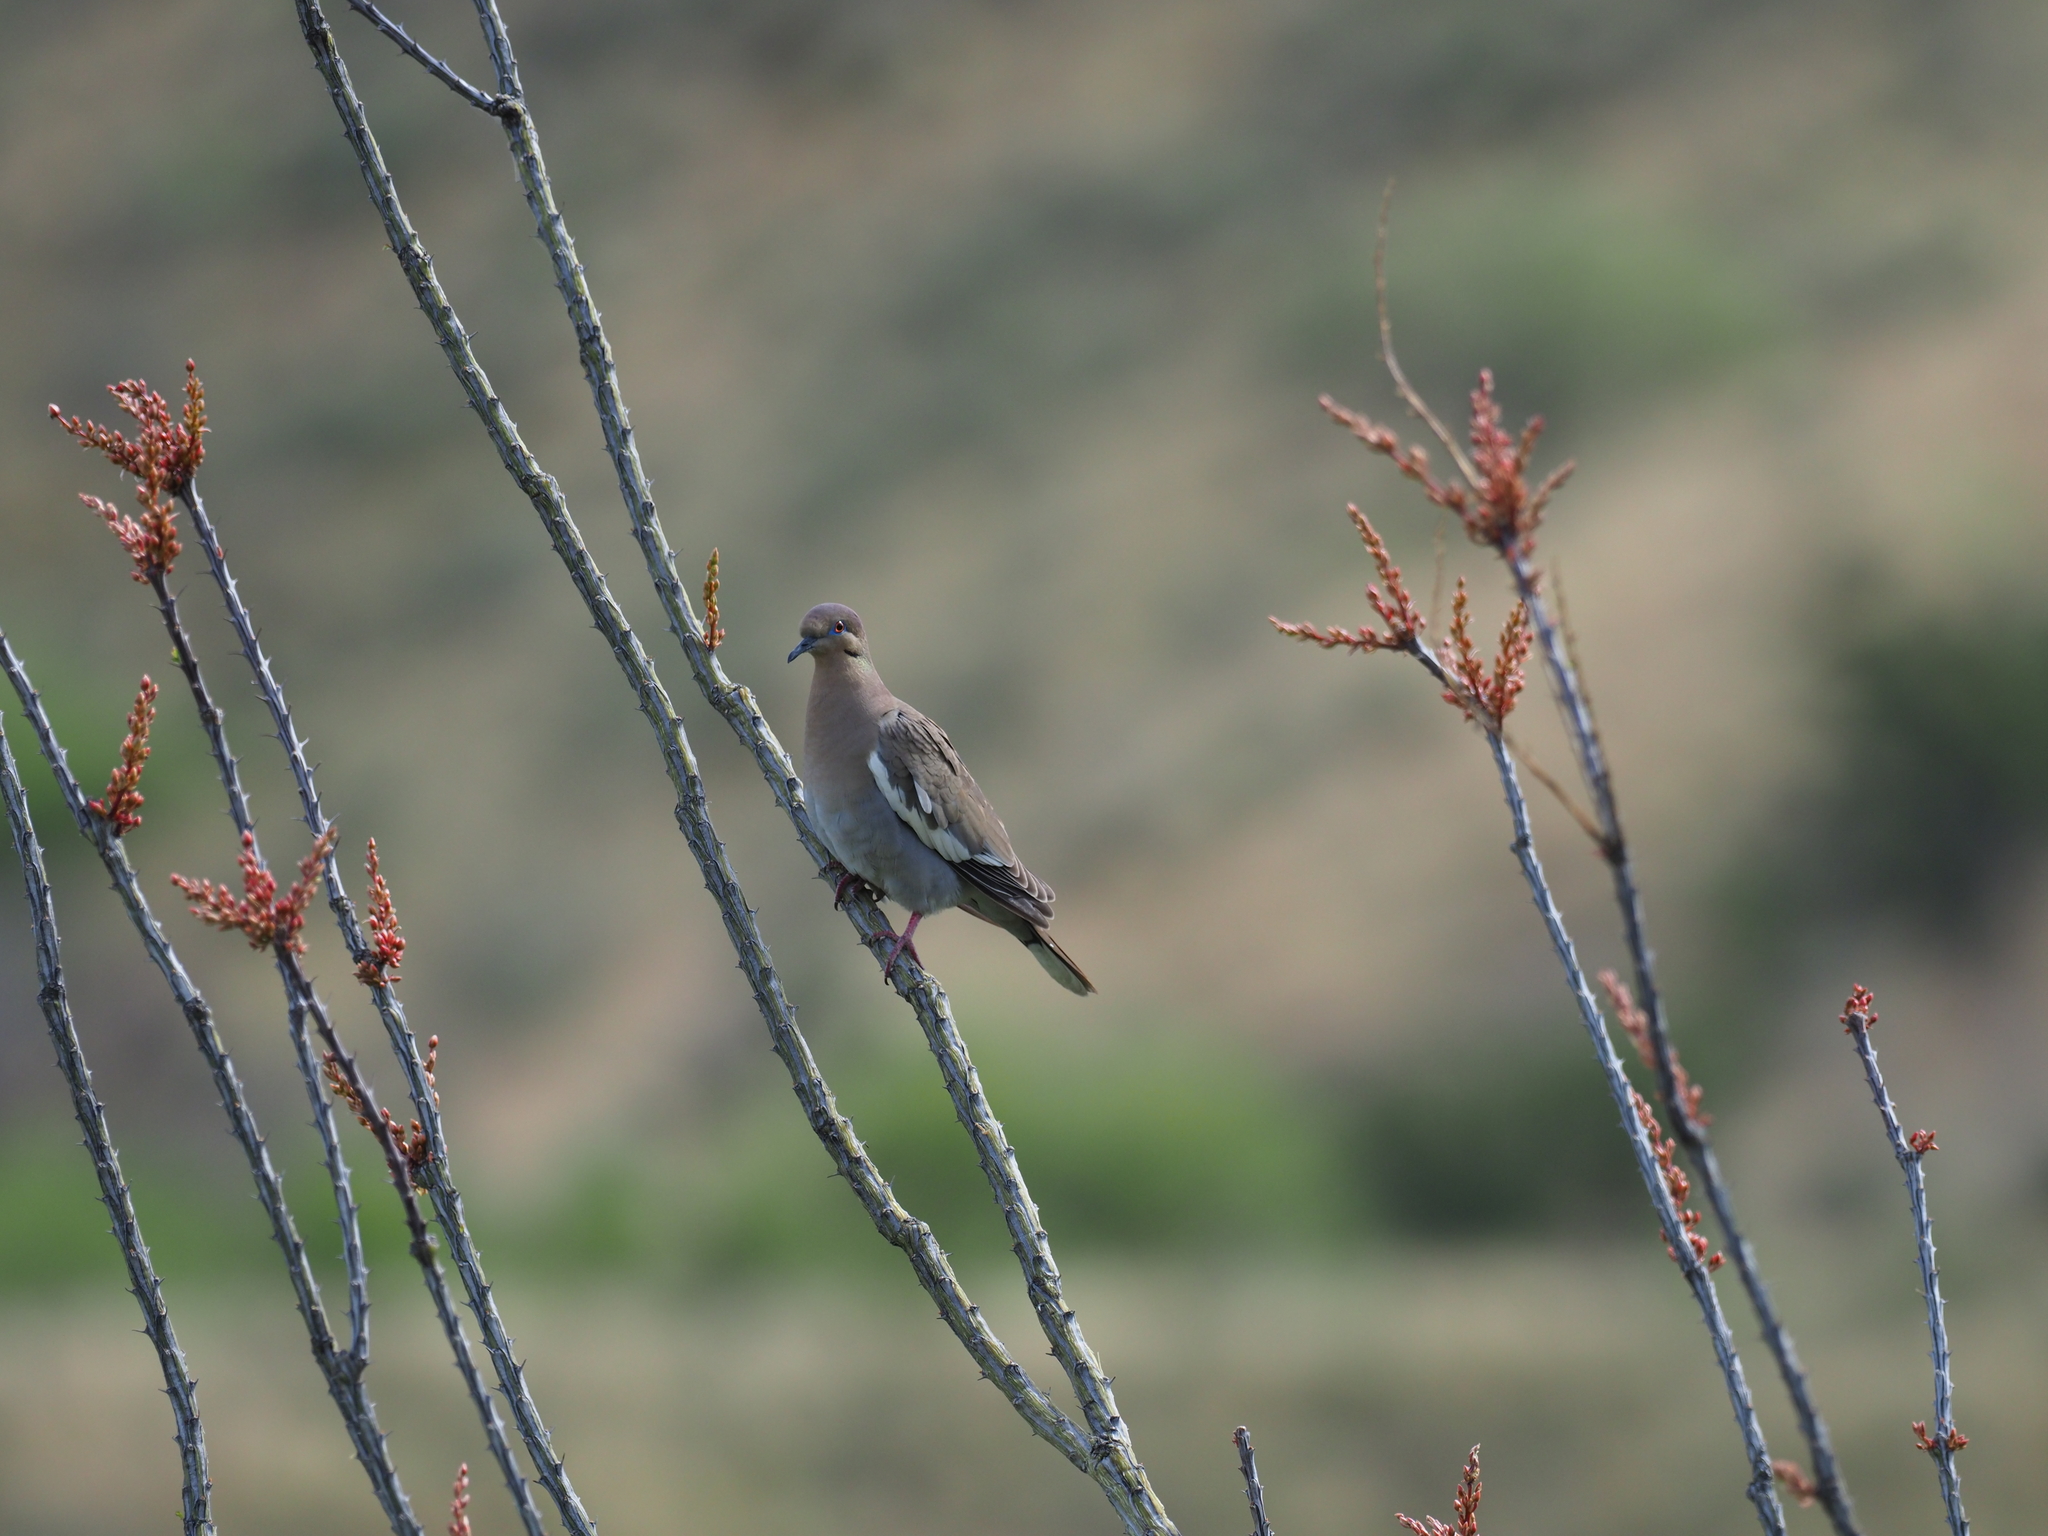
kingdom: Animalia
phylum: Chordata
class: Aves
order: Columbiformes
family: Columbidae
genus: Zenaida
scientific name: Zenaida asiatica
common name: White-winged dove
